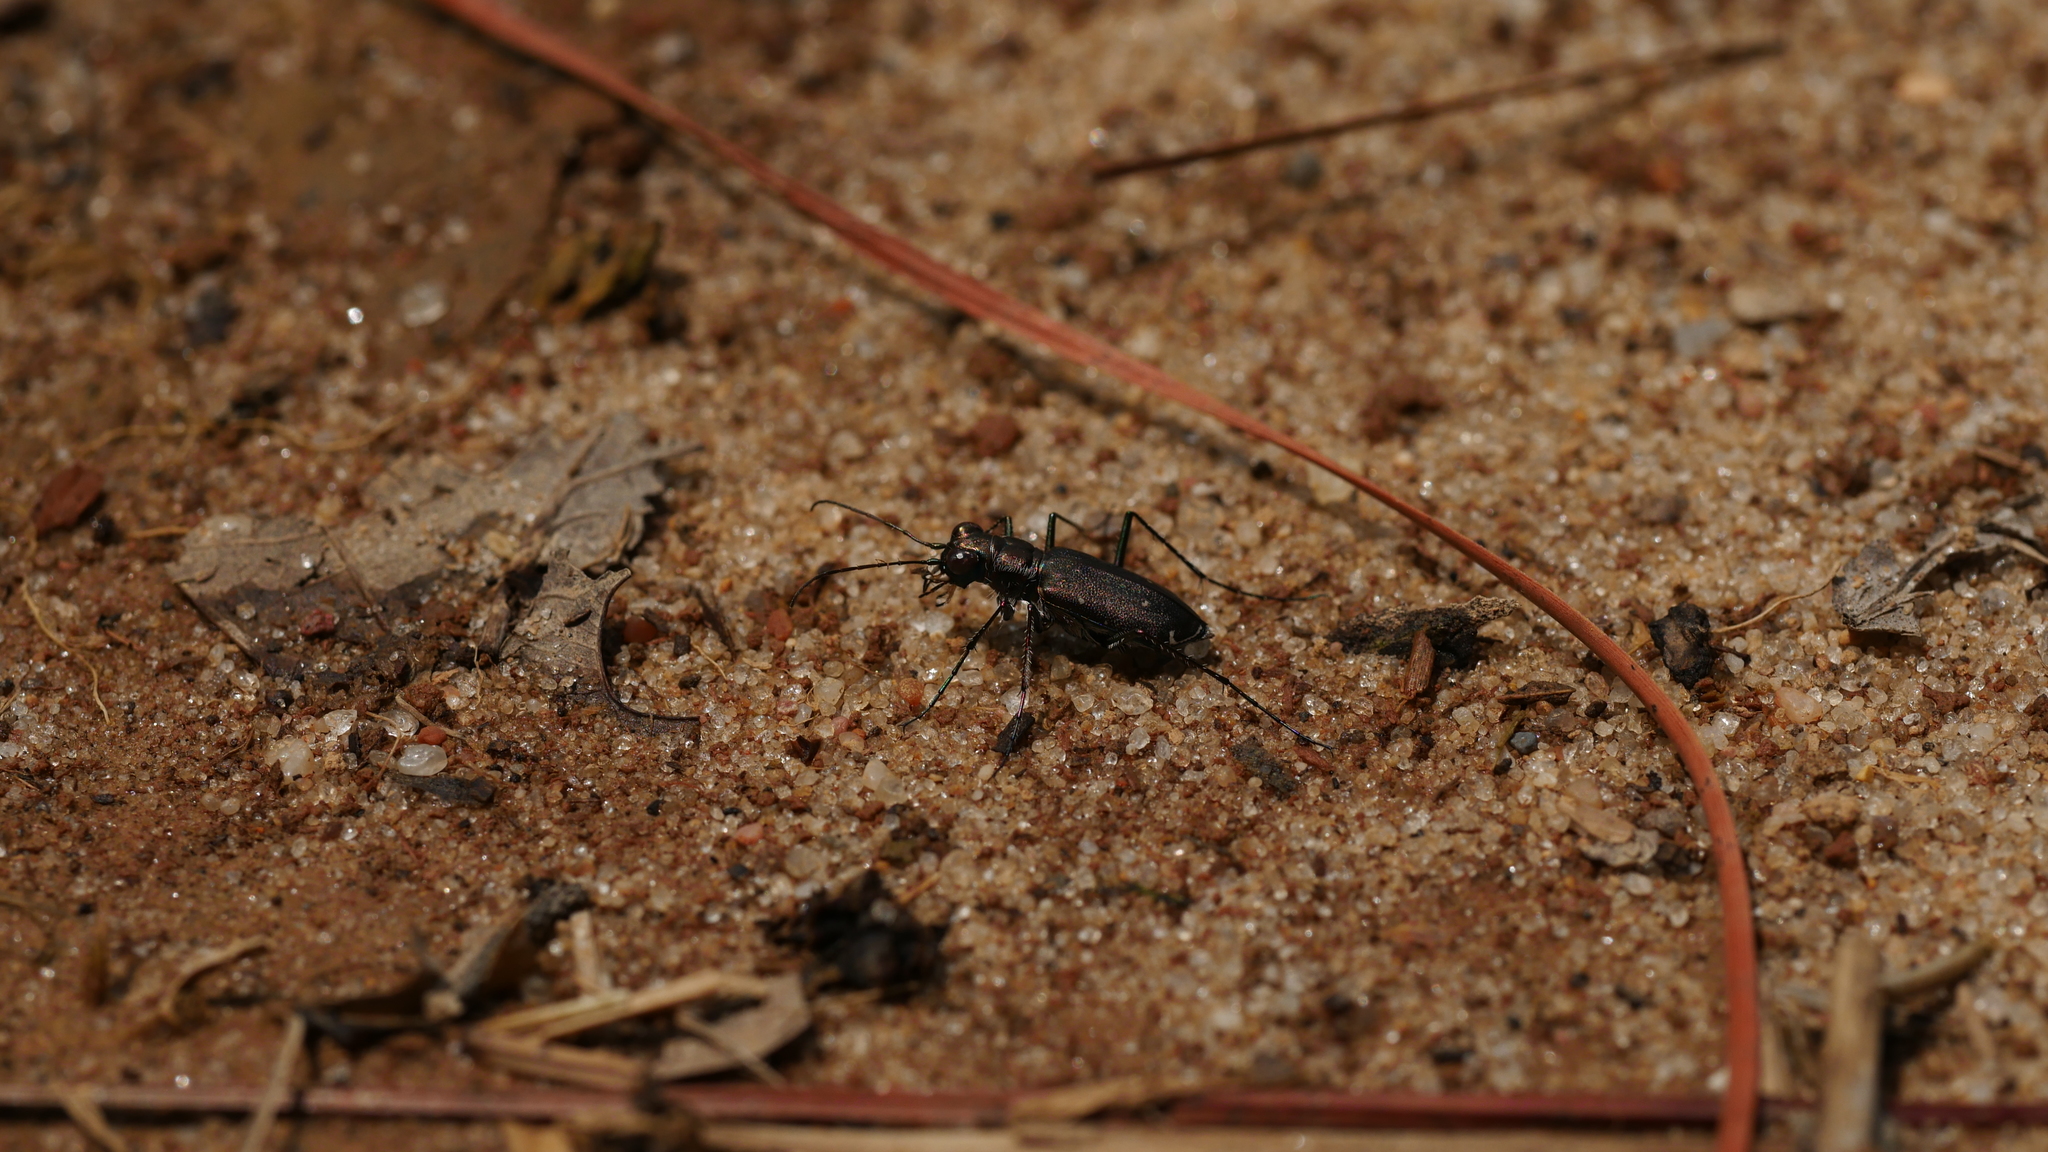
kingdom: Animalia
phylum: Arthropoda
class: Insecta
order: Coleoptera
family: Carabidae
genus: Cicindela
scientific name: Cicindela punctulata
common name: Punctured tiger beetle
